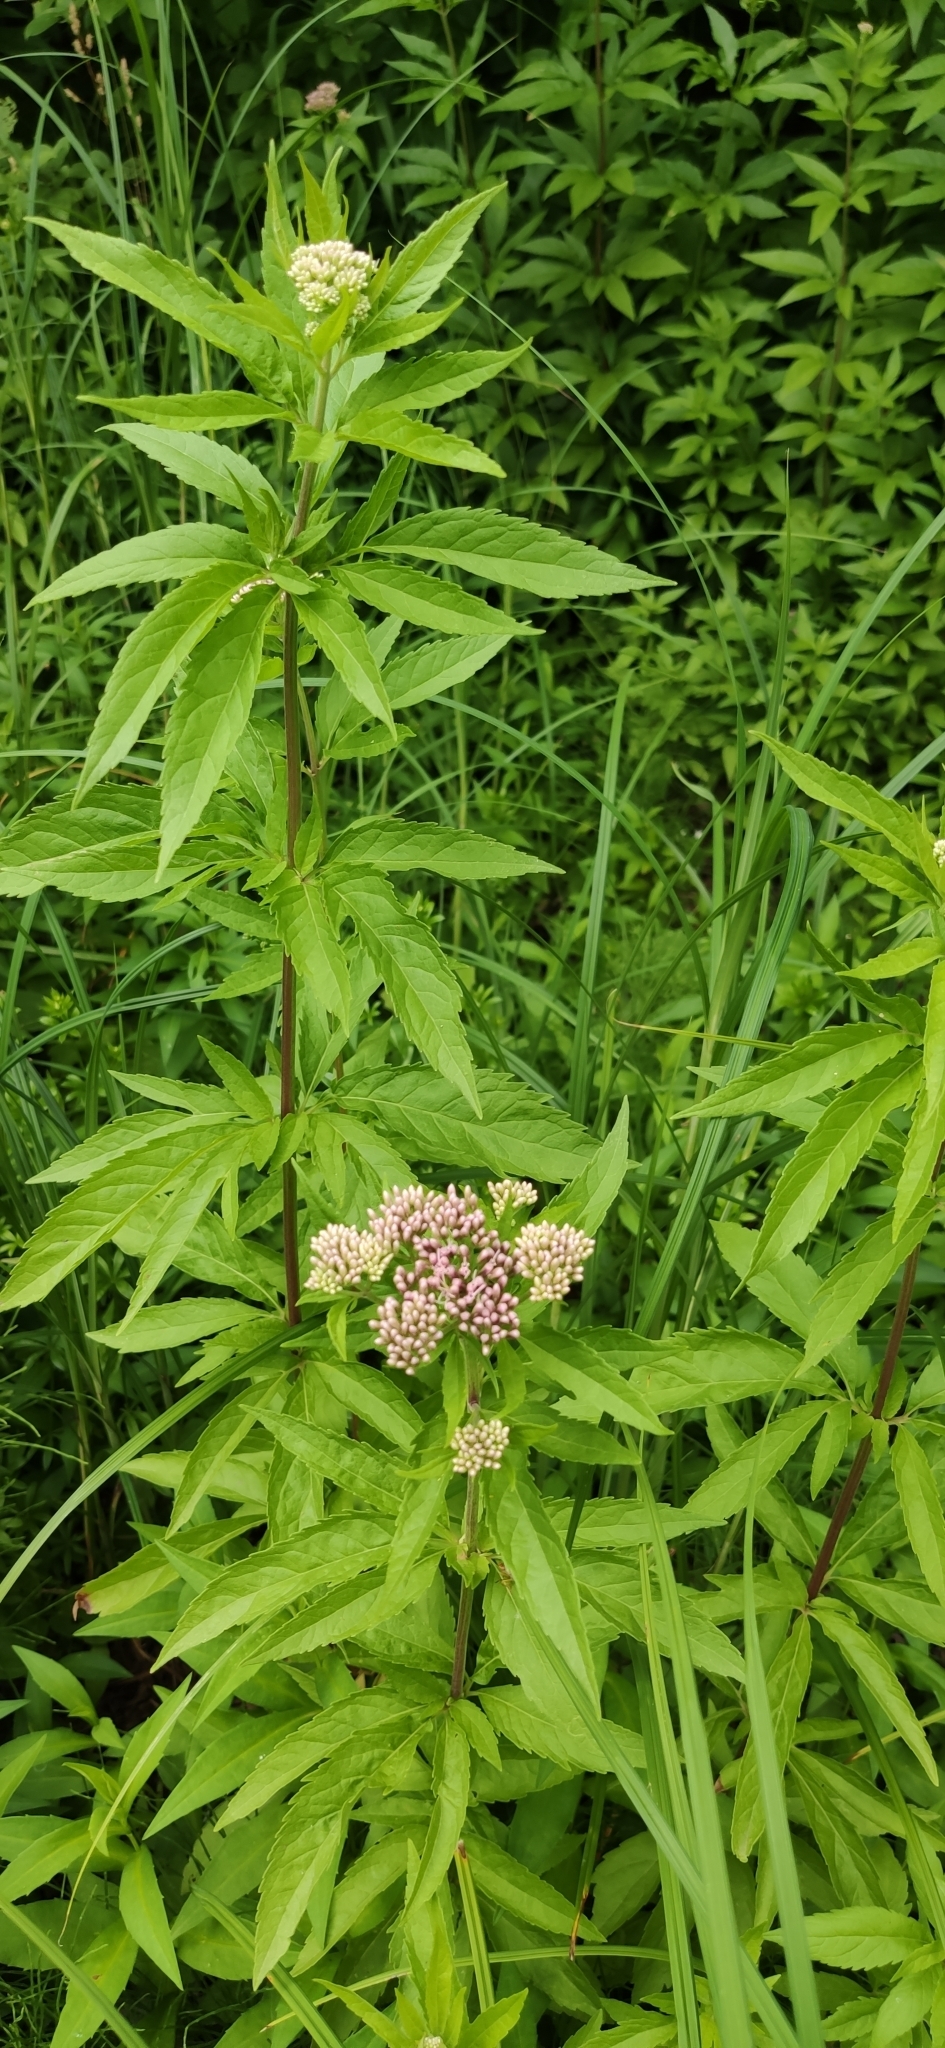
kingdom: Plantae
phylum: Tracheophyta
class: Magnoliopsida
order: Asterales
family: Asteraceae
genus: Eupatorium
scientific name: Eupatorium cannabinum
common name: Hemp-agrimony
